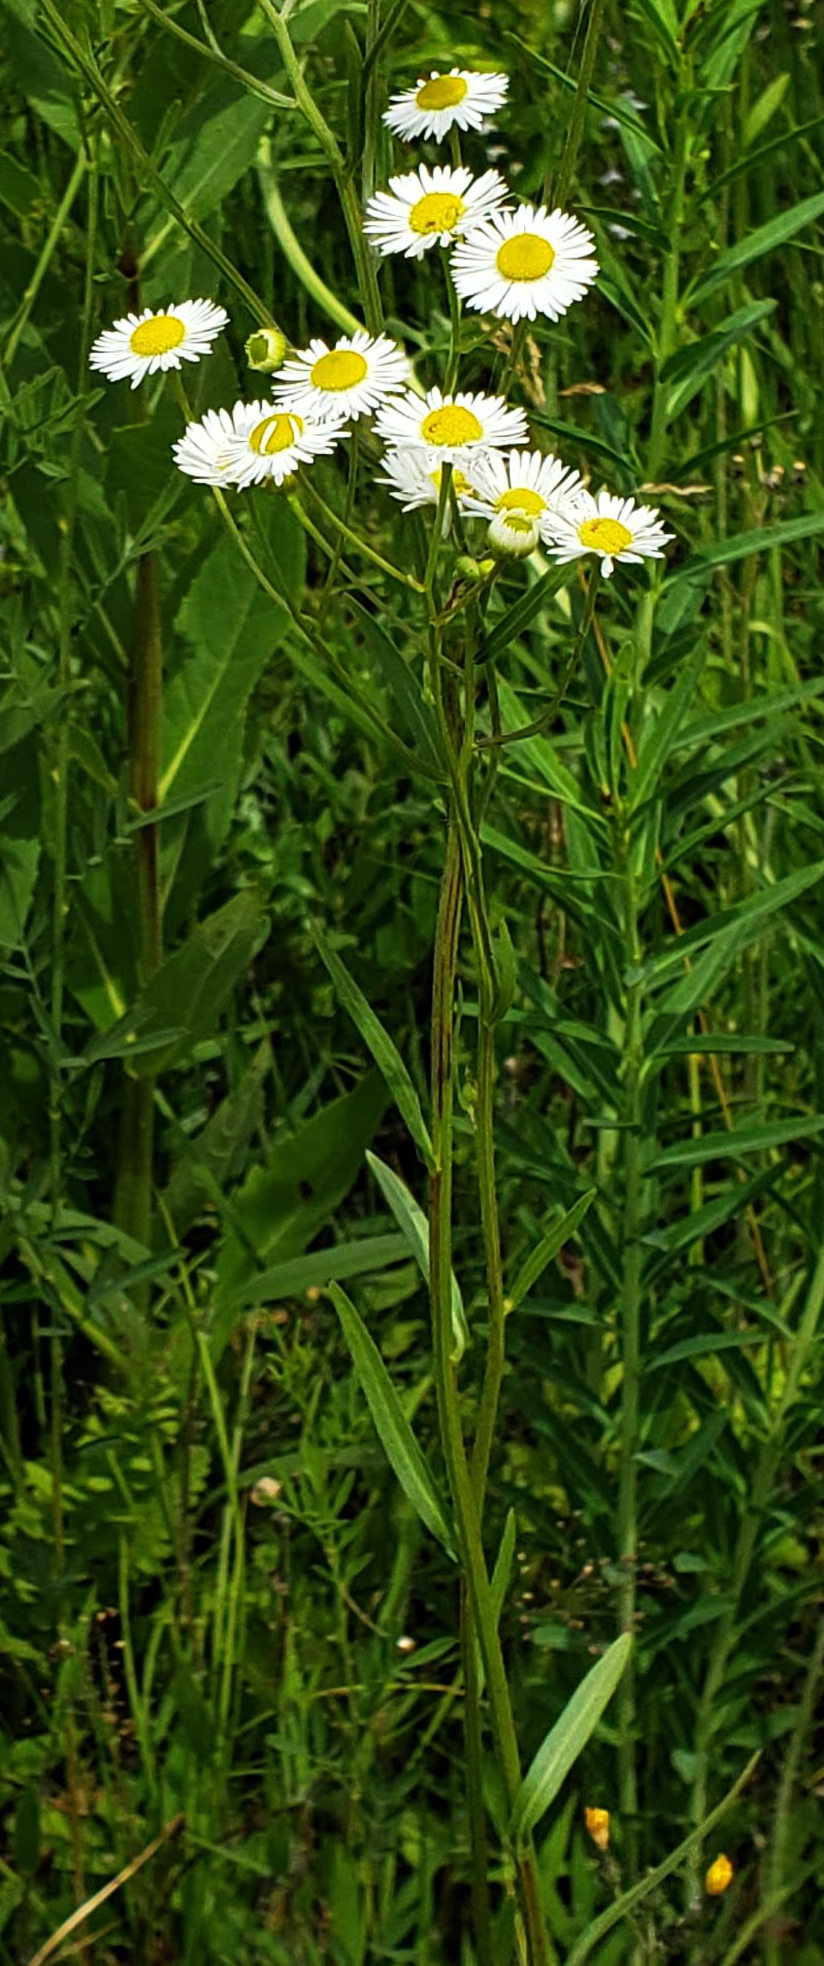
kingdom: Plantae
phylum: Tracheophyta
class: Magnoliopsida
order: Asterales
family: Asteraceae
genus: Erigeron
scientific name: Erigeron strigosus
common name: Common eastern fleabane
